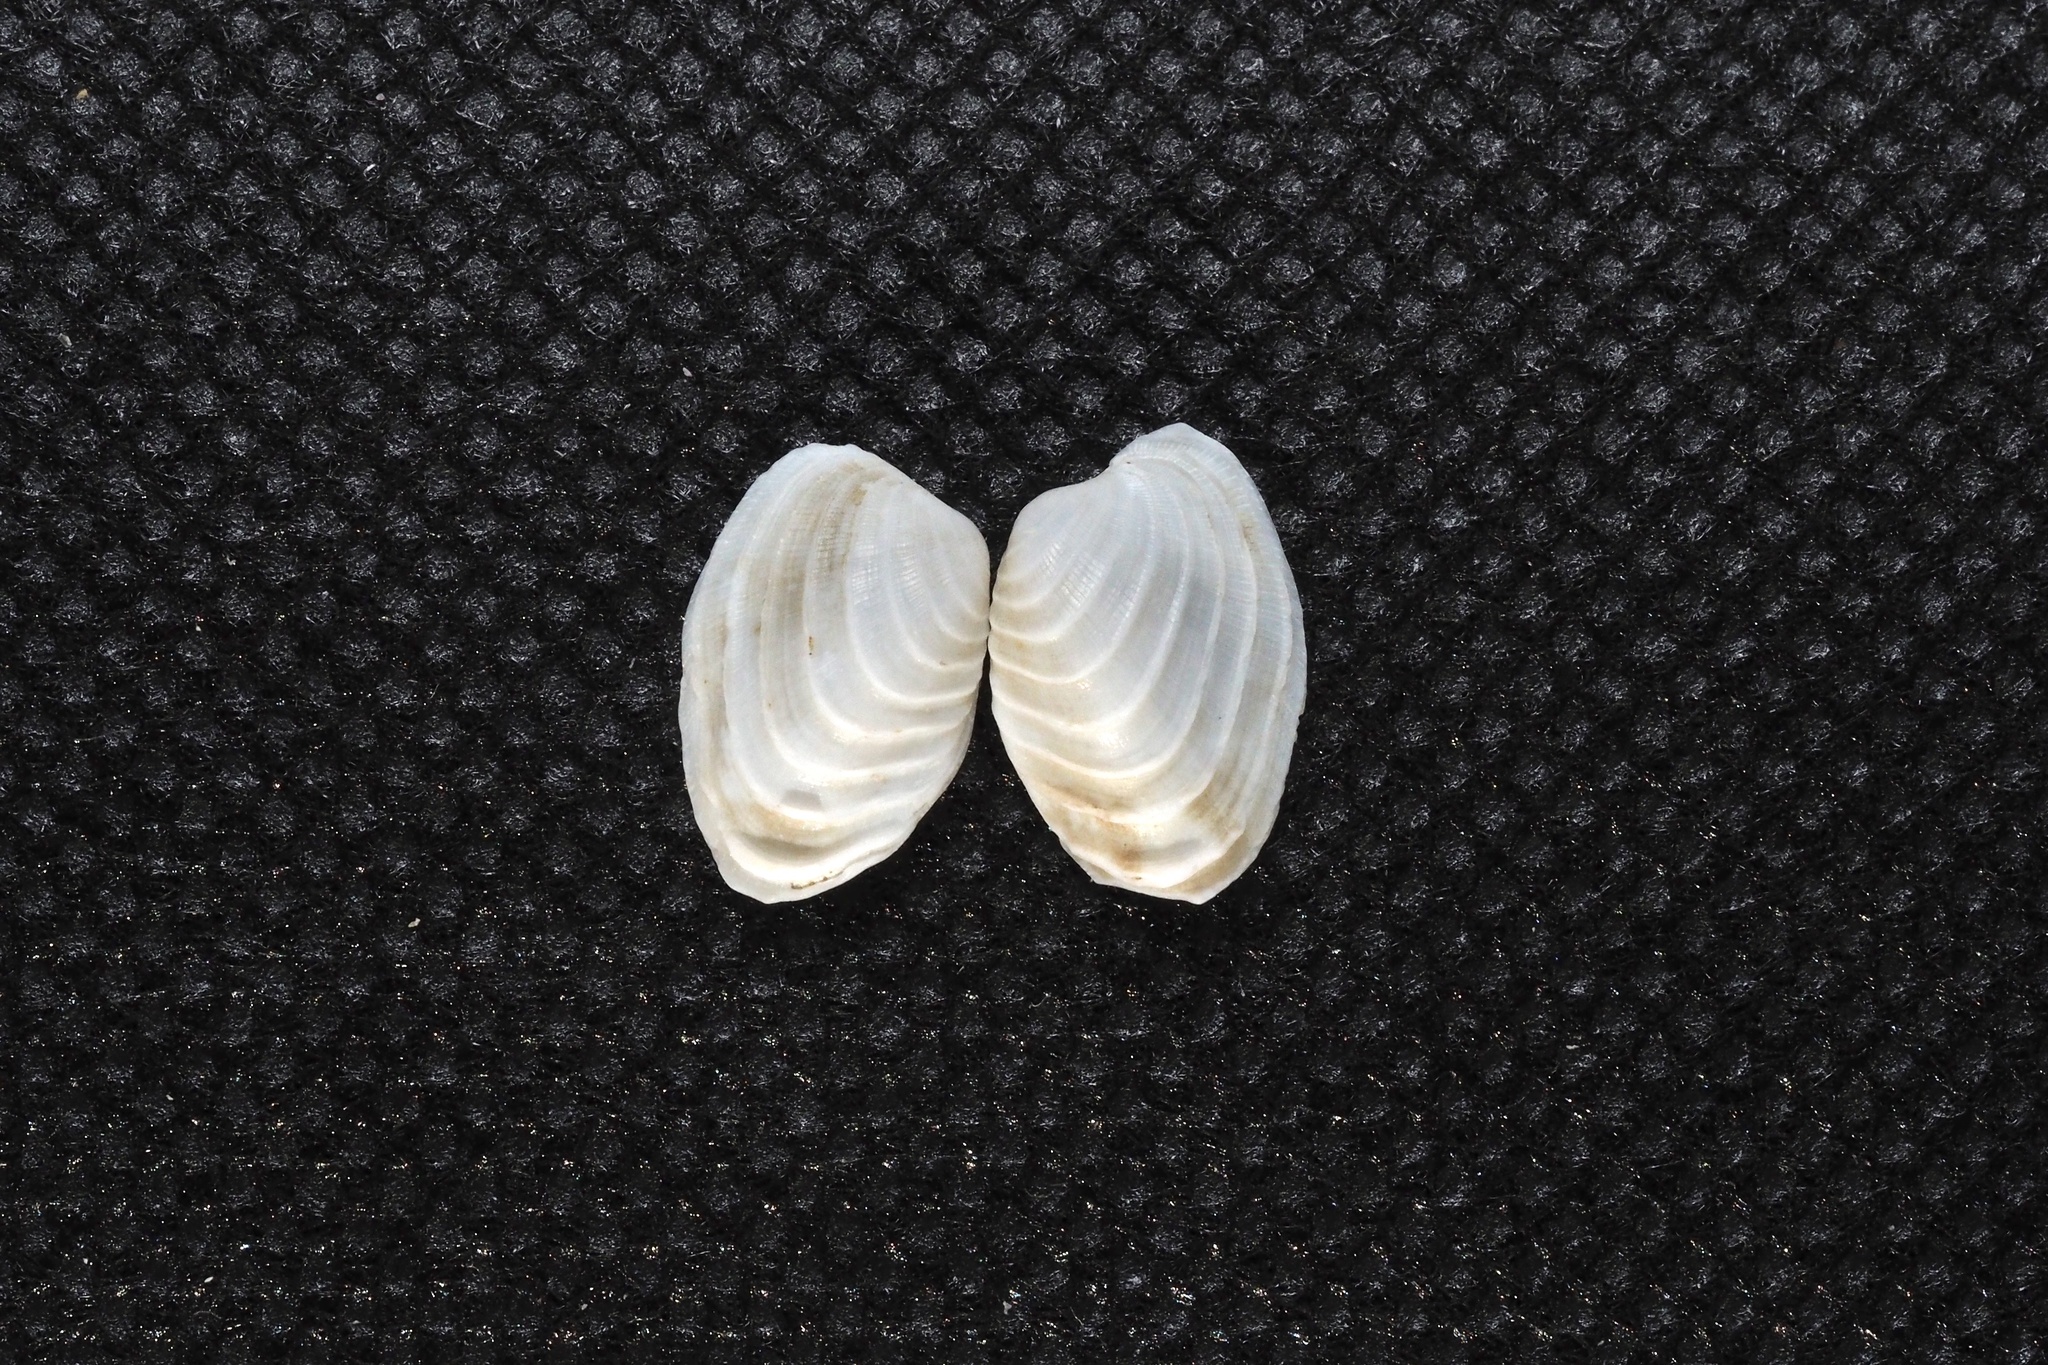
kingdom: Animalia
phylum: Mollusca
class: Bivalvia
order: Venerida
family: Veneridae
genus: Irus
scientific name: Irus irus
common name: Irus clam
